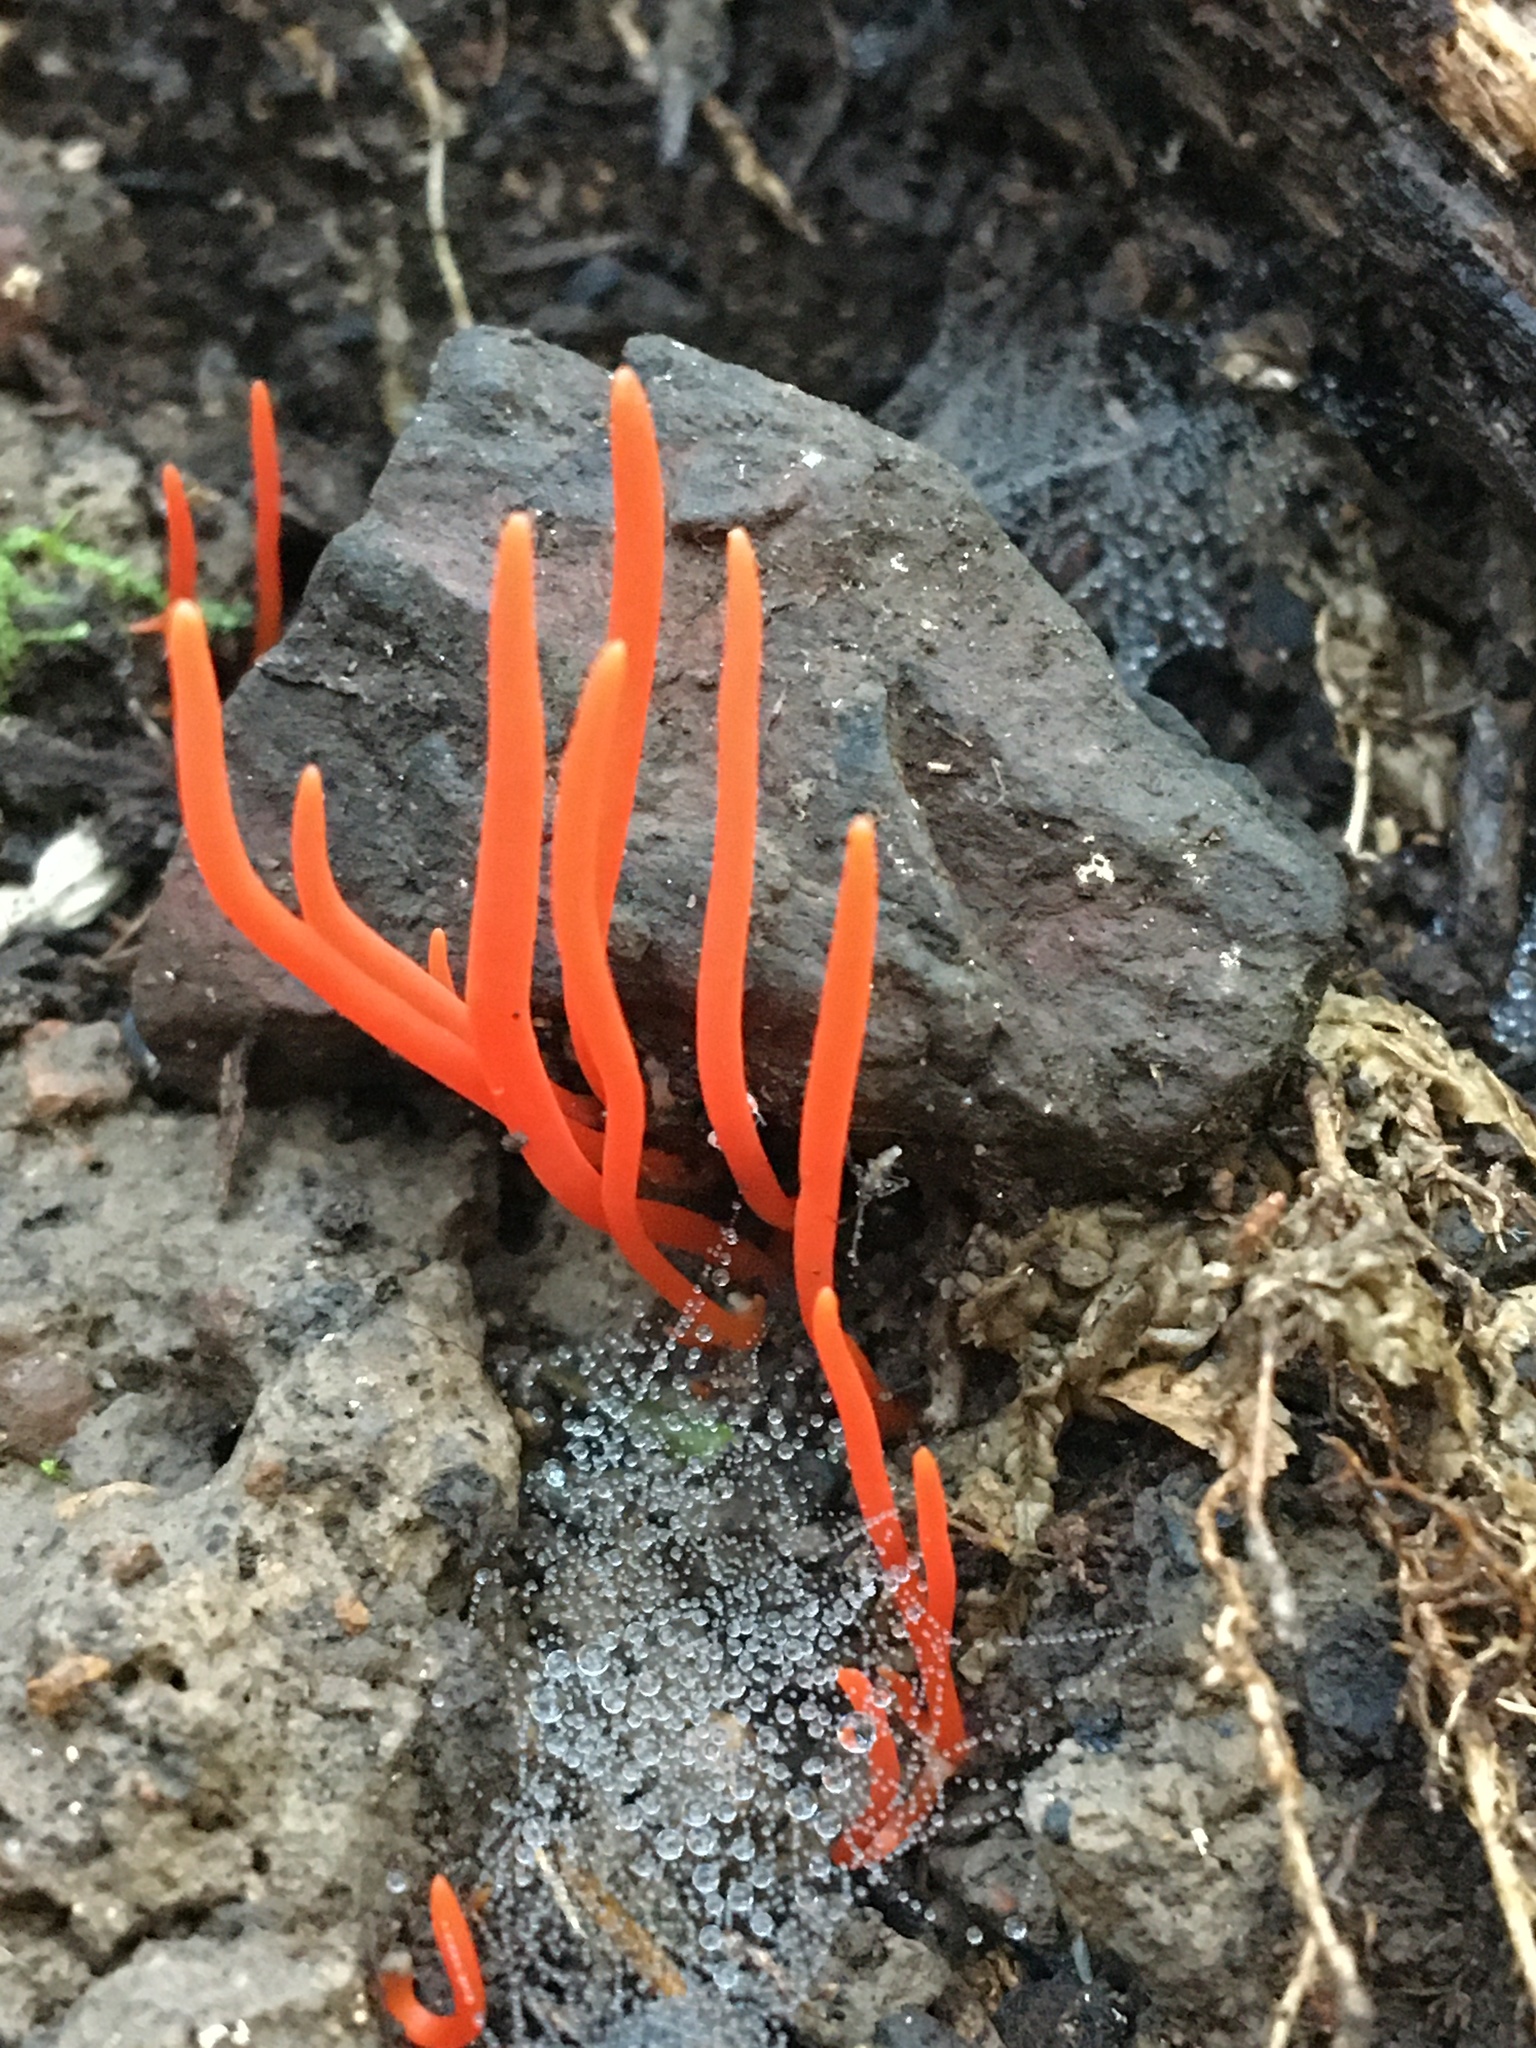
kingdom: Fungi
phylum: Basidiomycota
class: Agaricomycetes
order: Agaricales
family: Clavariaceae
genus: Clavulinopsis
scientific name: Clavulinopsis sulcata
